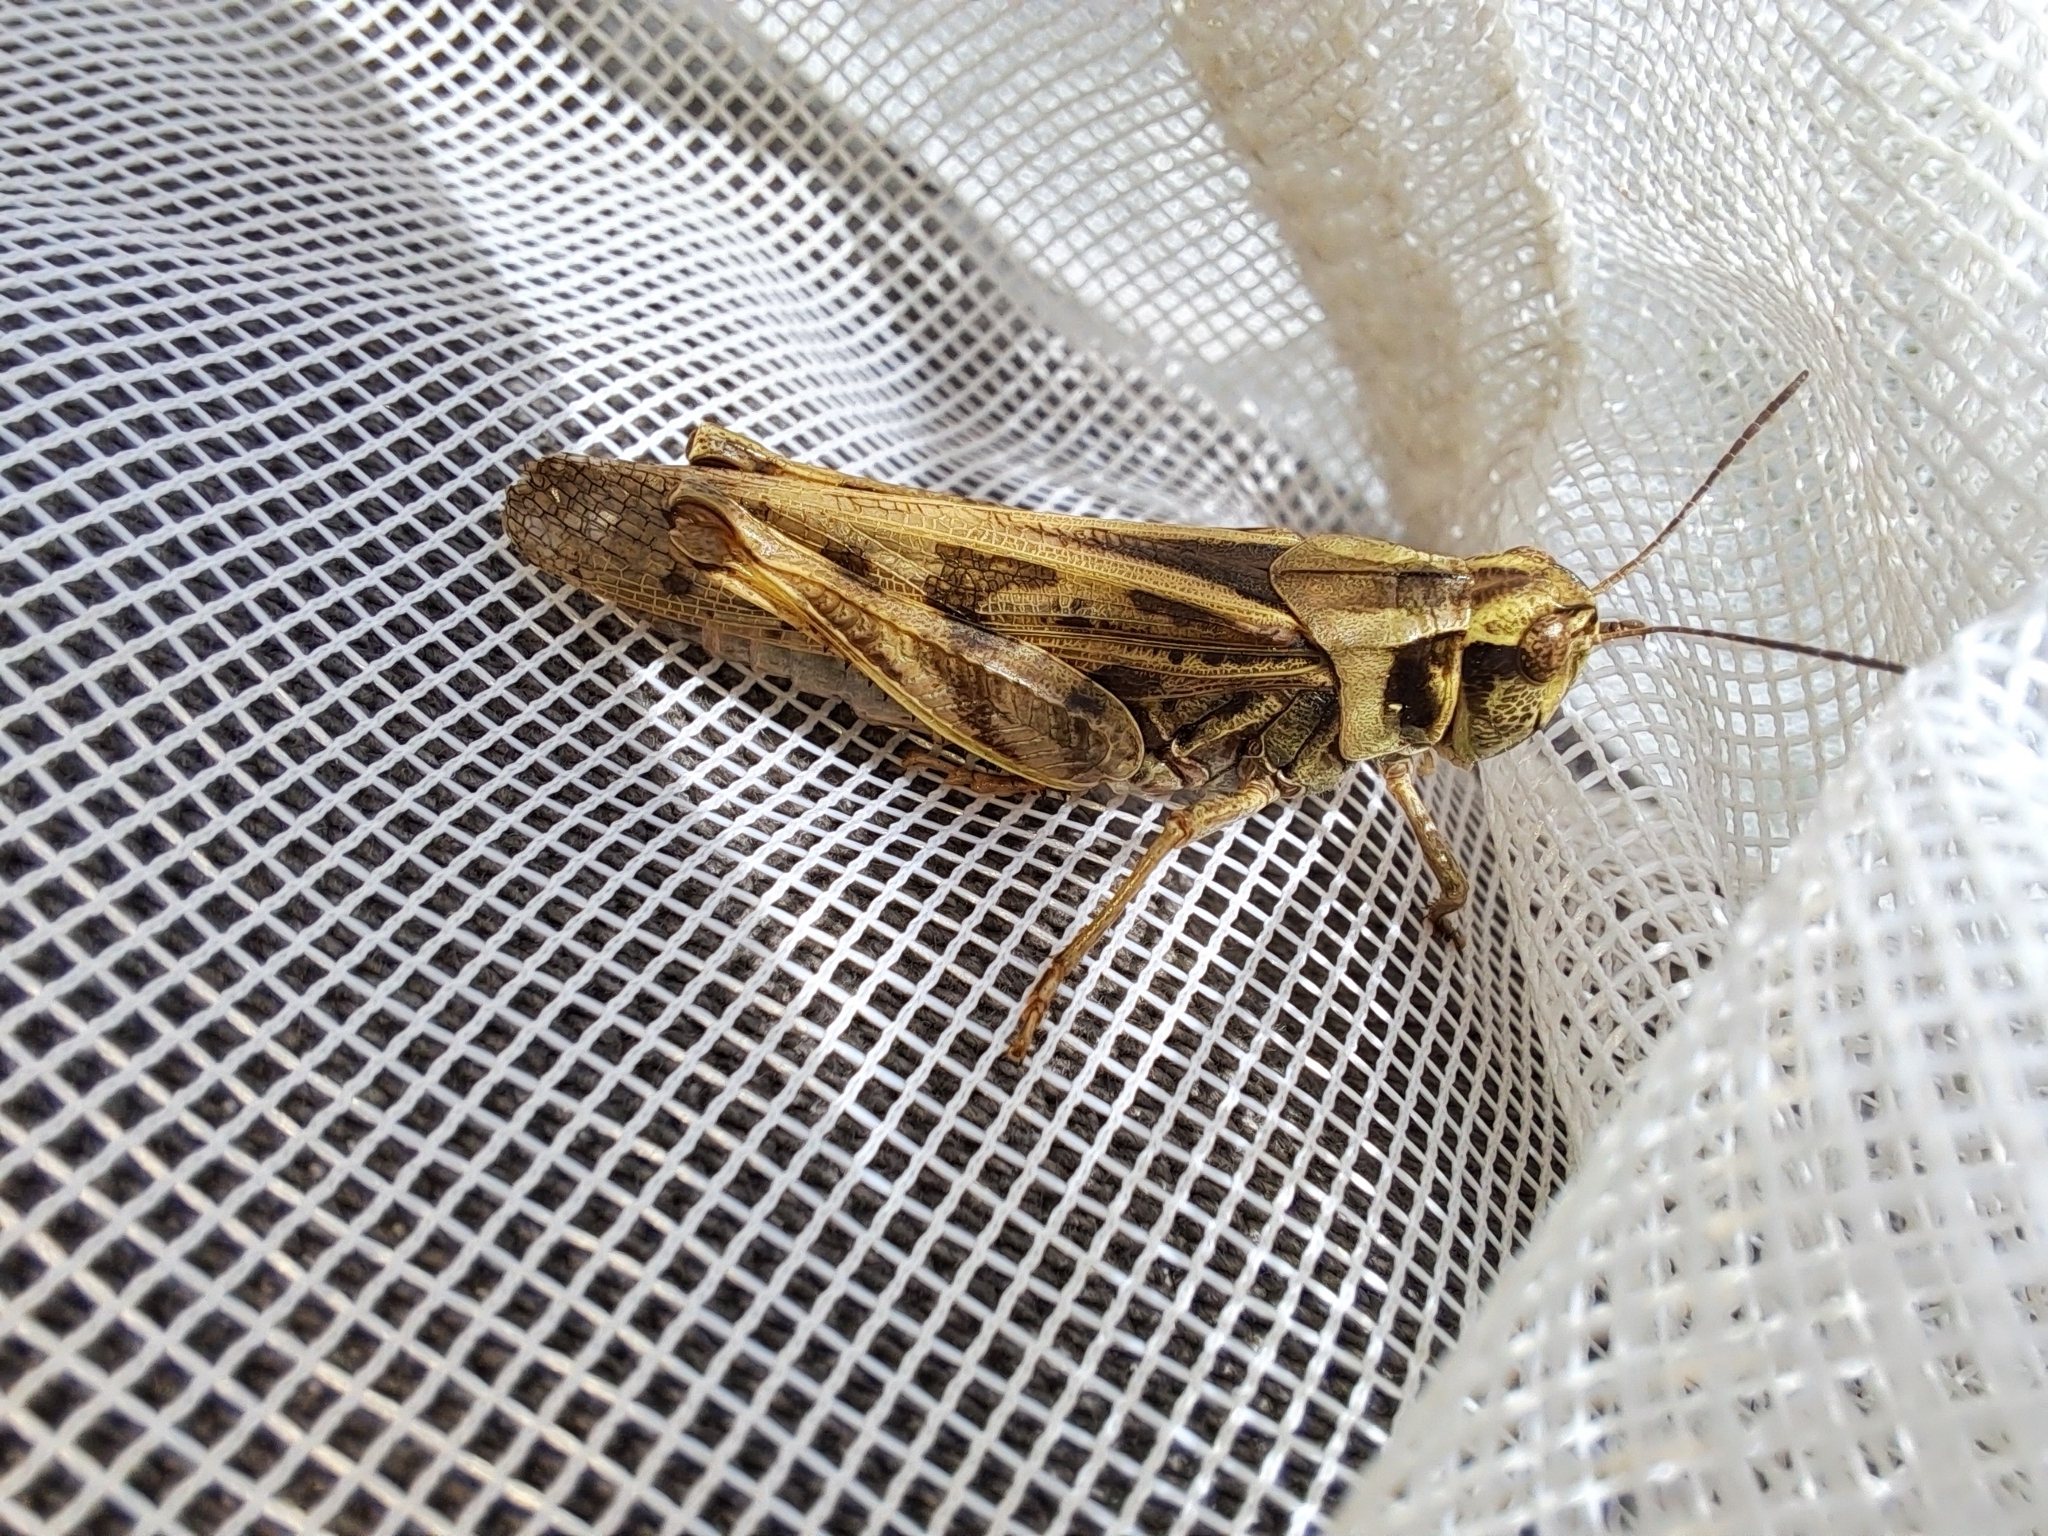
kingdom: Animalia
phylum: Arthropoda
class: Insecta
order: Orthoptera
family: Acrididae
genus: Camnula
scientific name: Camnula pellucida
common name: Clear-winged grasshopper
